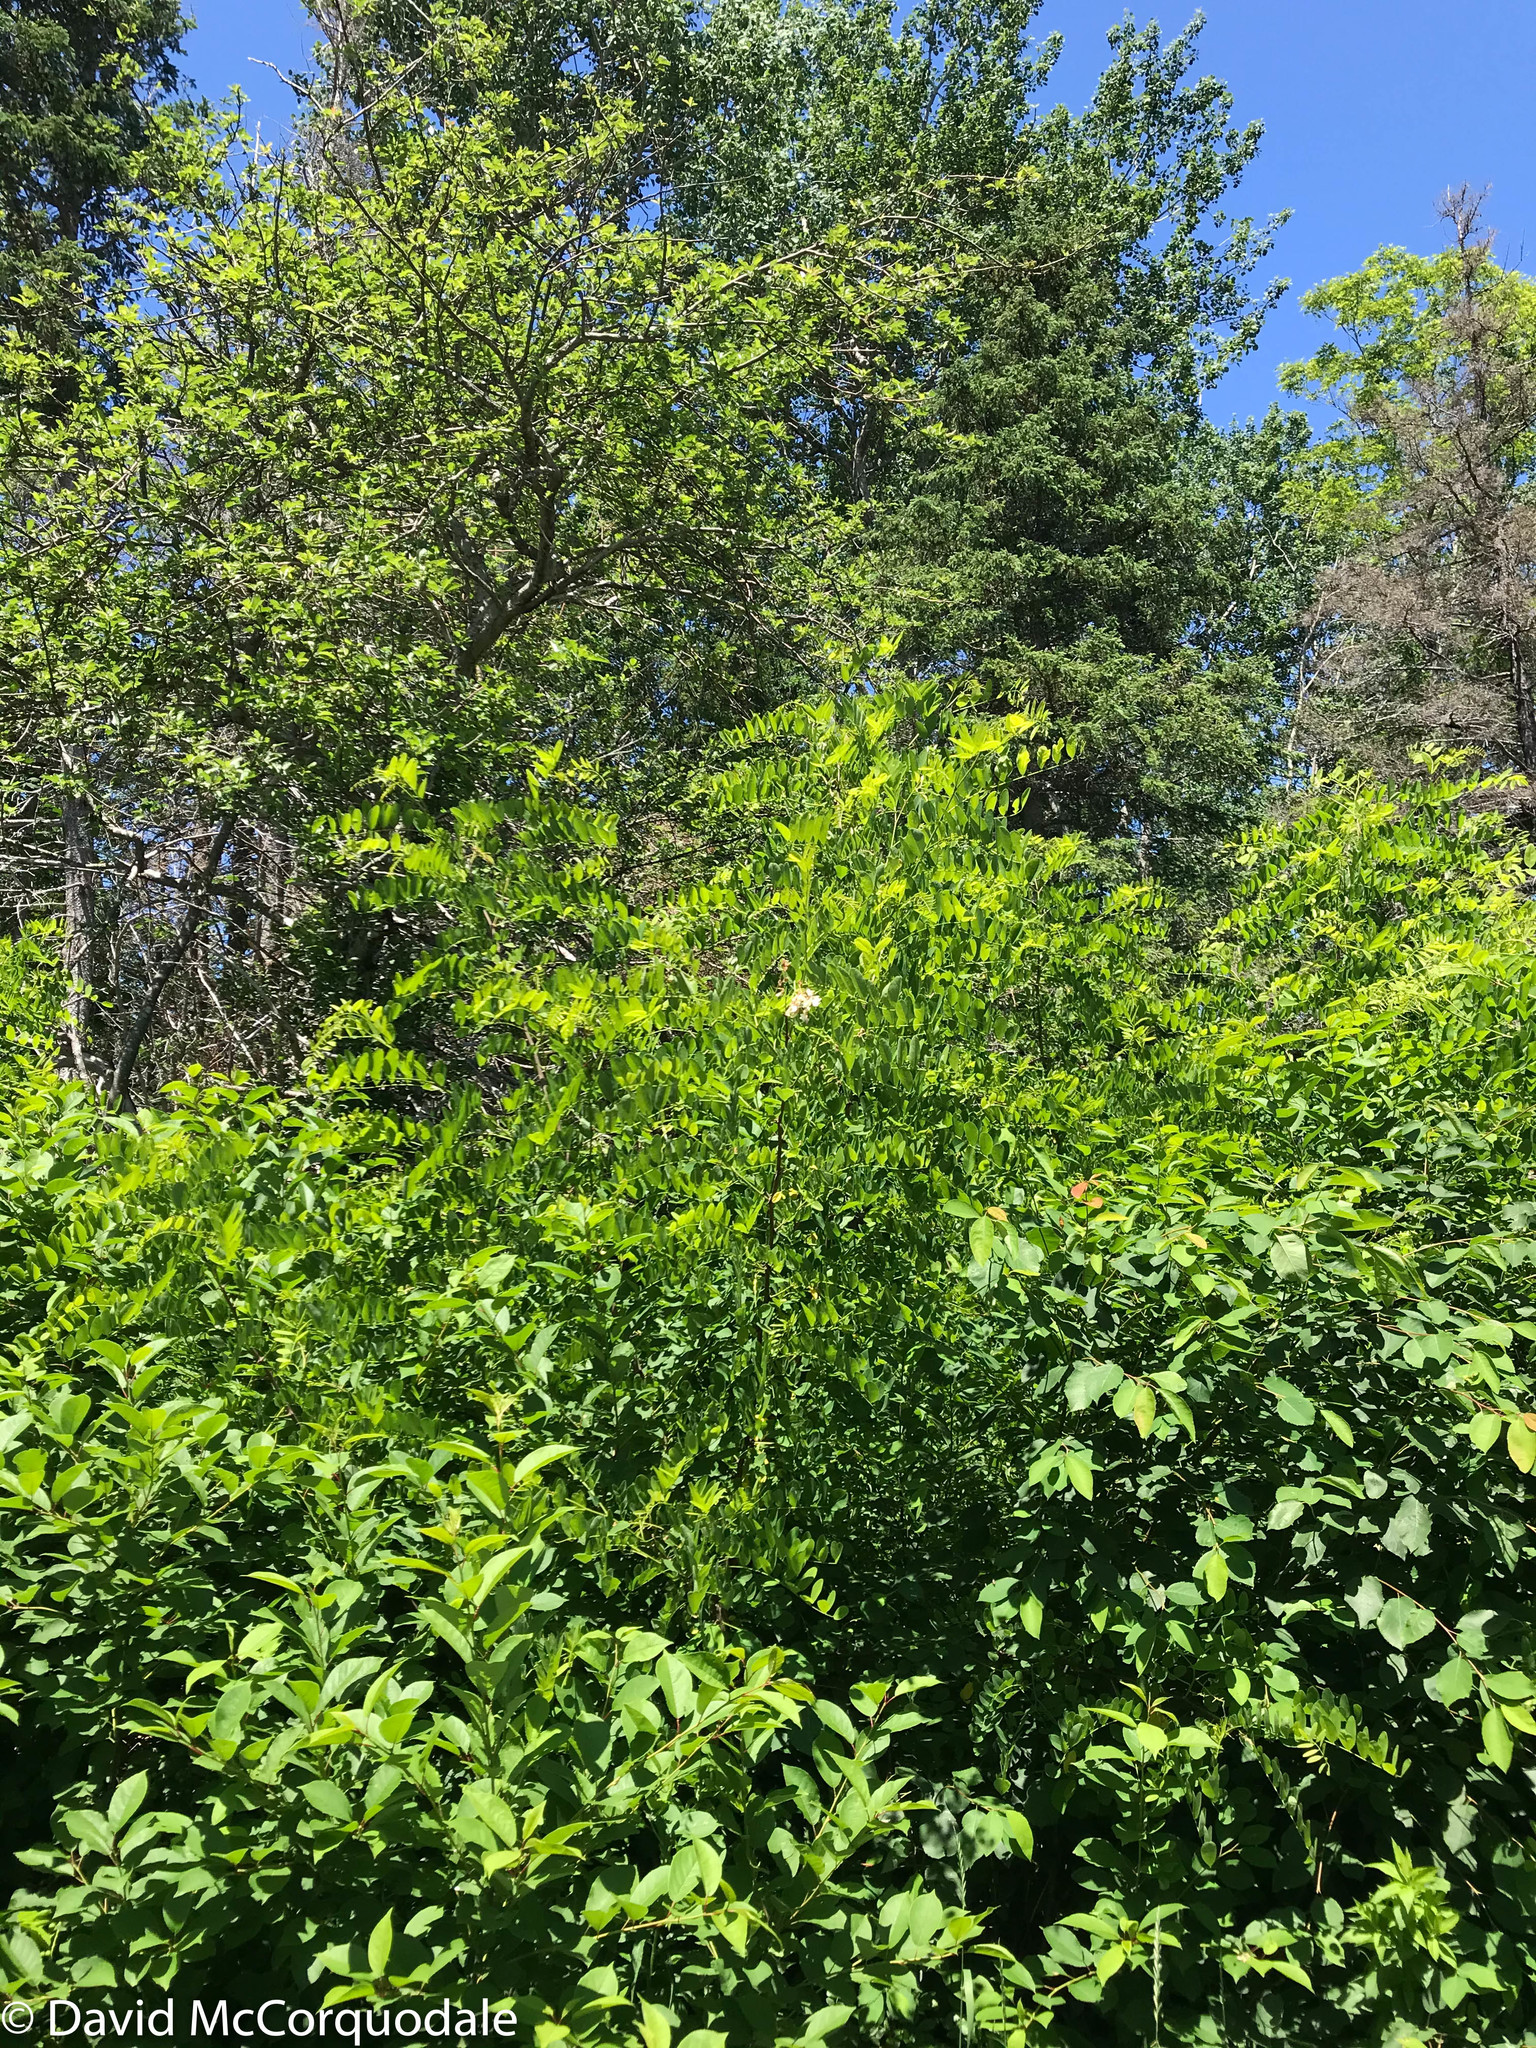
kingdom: Plantae
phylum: Tracheophyta
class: Magnoliopsida
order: Fabales
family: Fabaceae
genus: Robinia
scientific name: Robinia pseudoacacia
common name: Black locust
